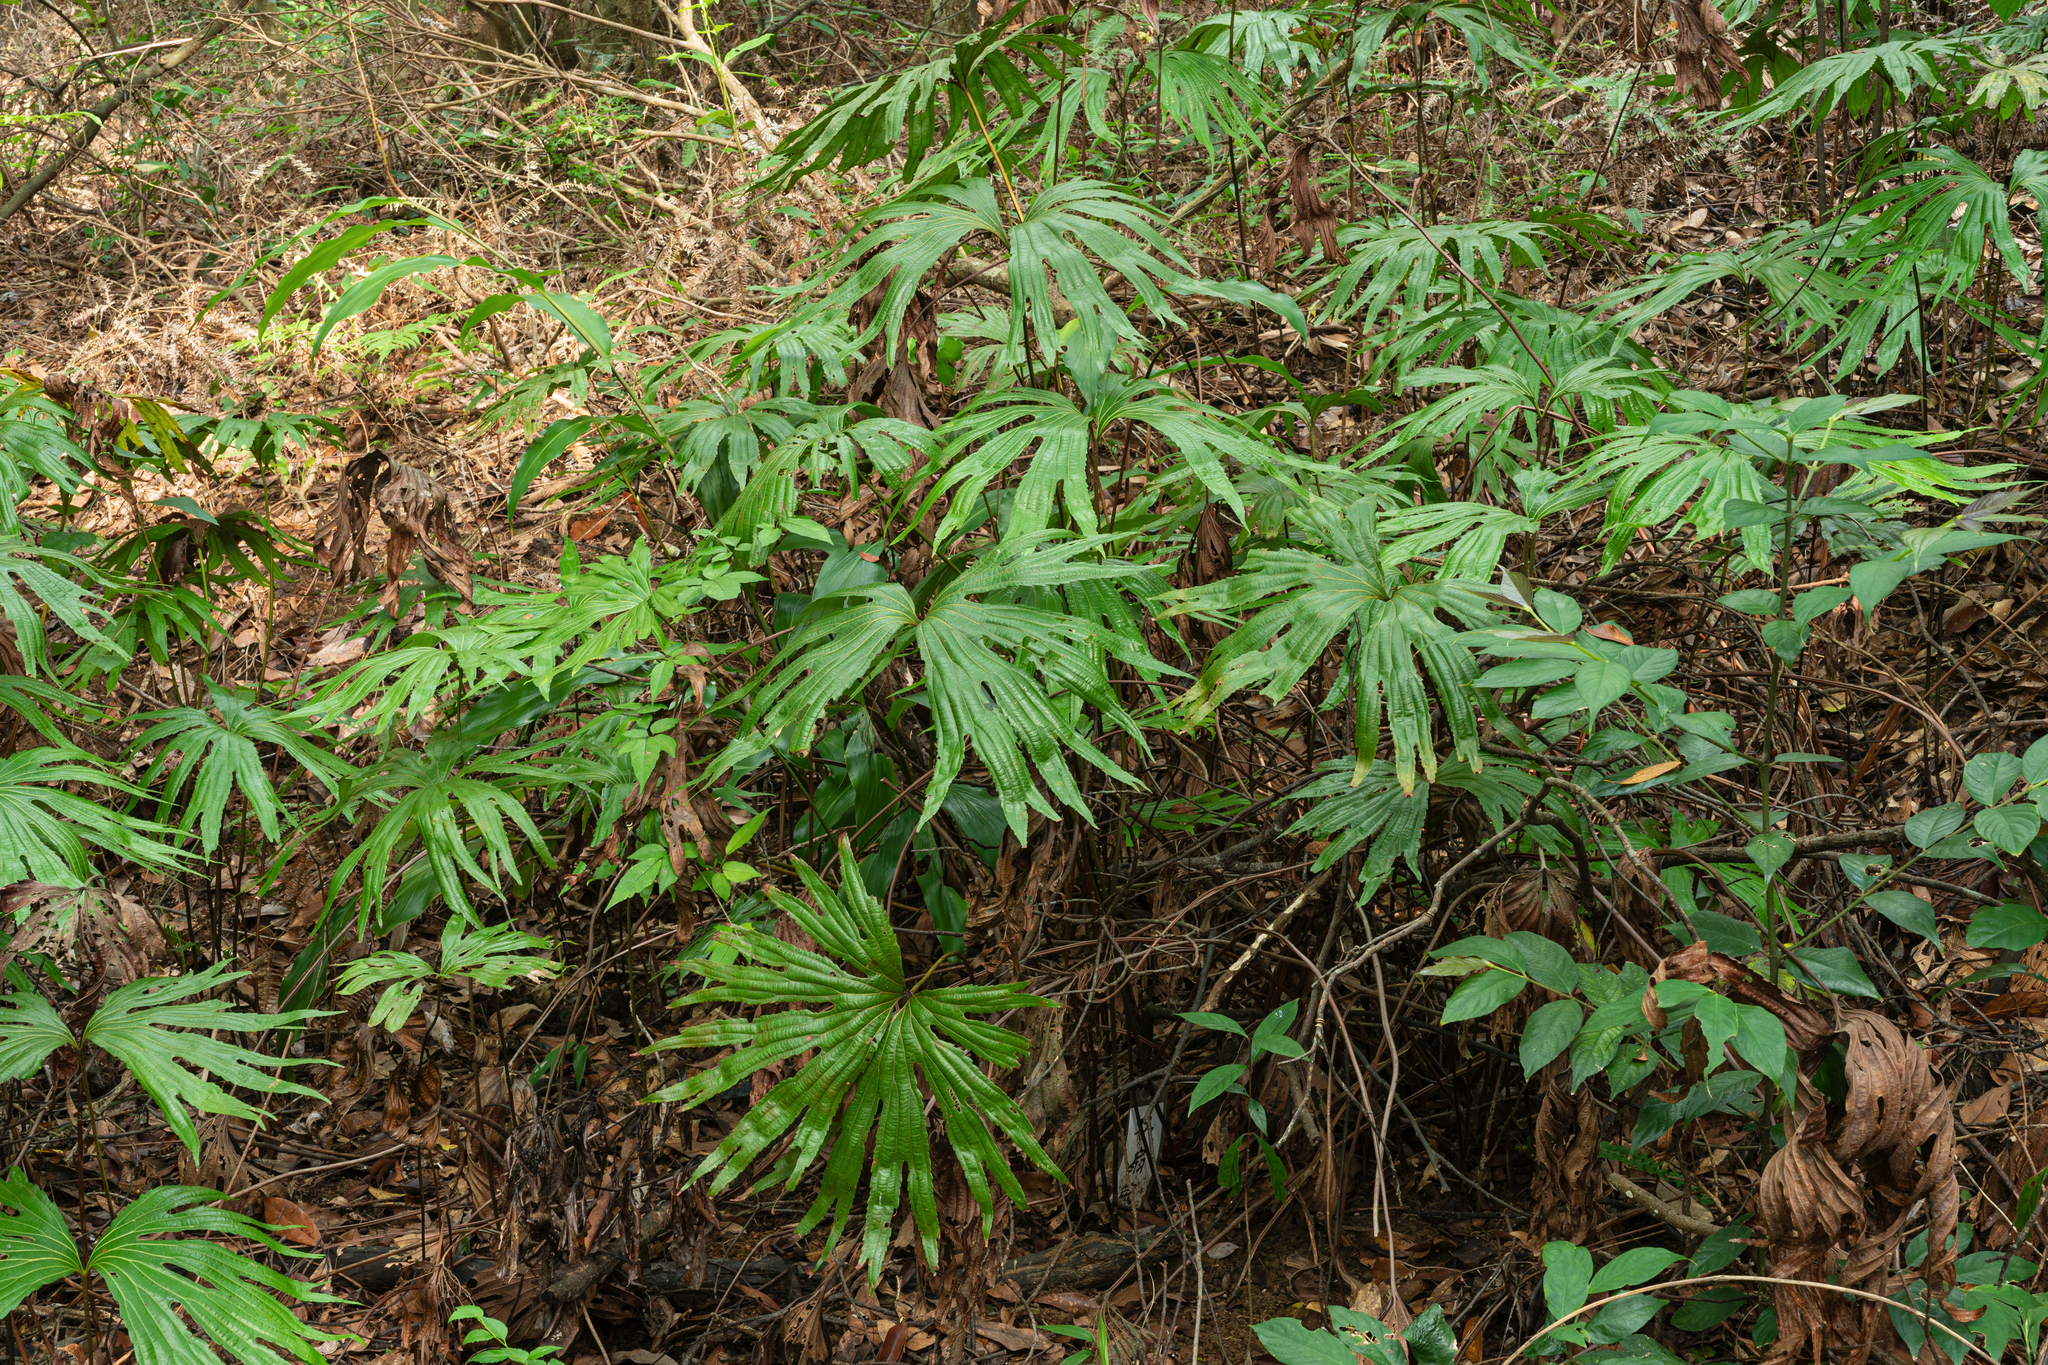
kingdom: Plantae
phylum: Tracheophyta
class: Polypodiopsida
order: Gleicheniales
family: Dipteridaceae
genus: Dipteris
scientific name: Dipteris conjugata
